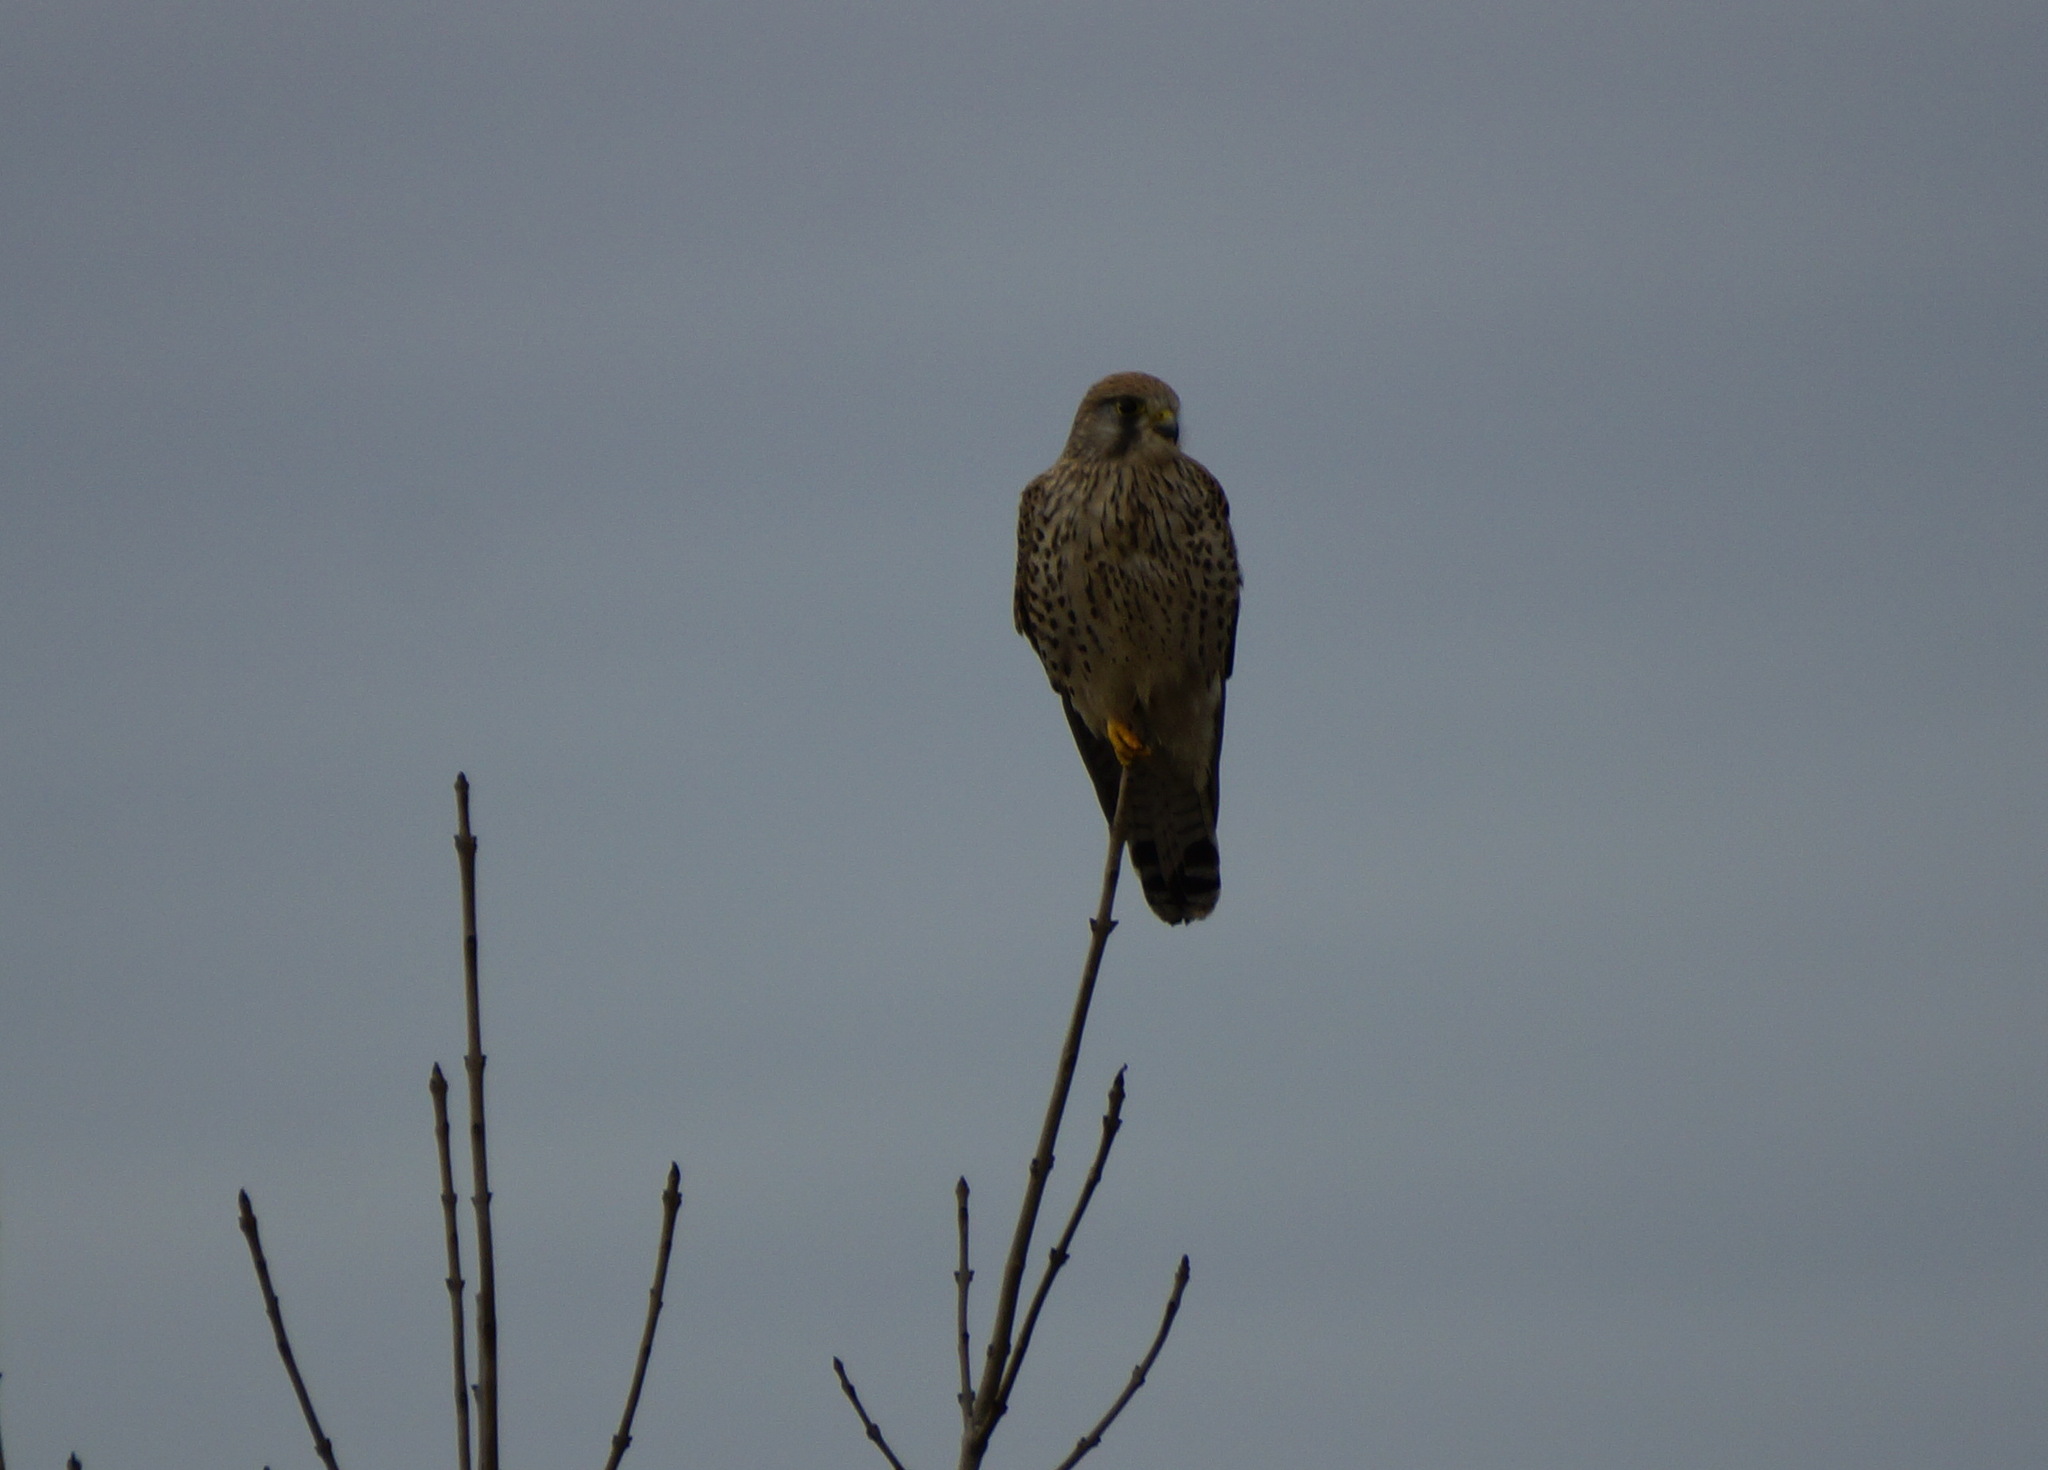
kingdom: Animalia
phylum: Chordata
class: Aves
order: Falconiformes
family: Falconidae
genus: Falco
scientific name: Falco tinnunculus
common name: Common kestrel
